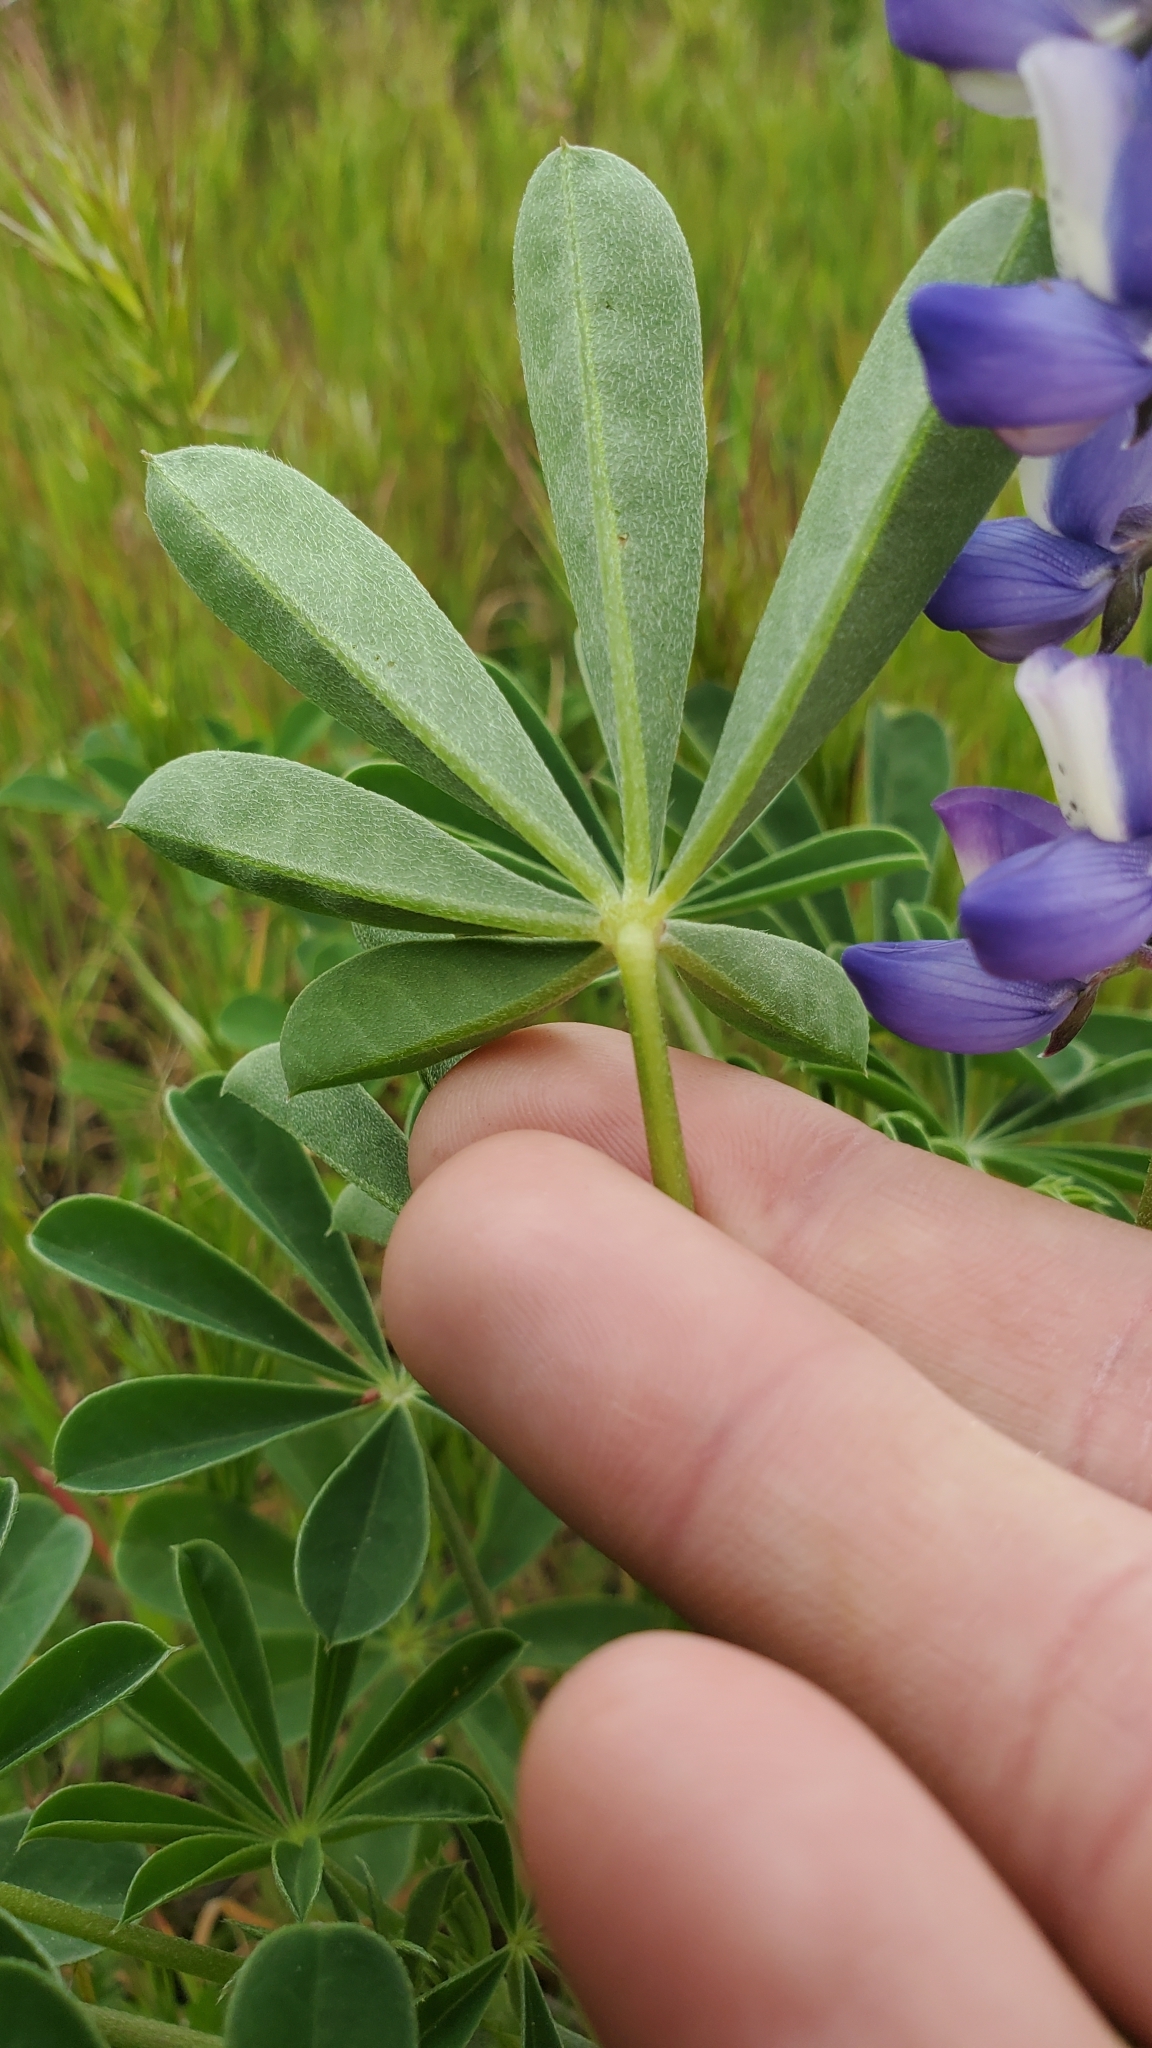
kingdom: Plantae
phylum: Tracheophyta
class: Magnoliopsida
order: Fabales
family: Fabaceae
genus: Lupinus
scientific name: Lupinus succulentus
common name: Arroyo lupine
